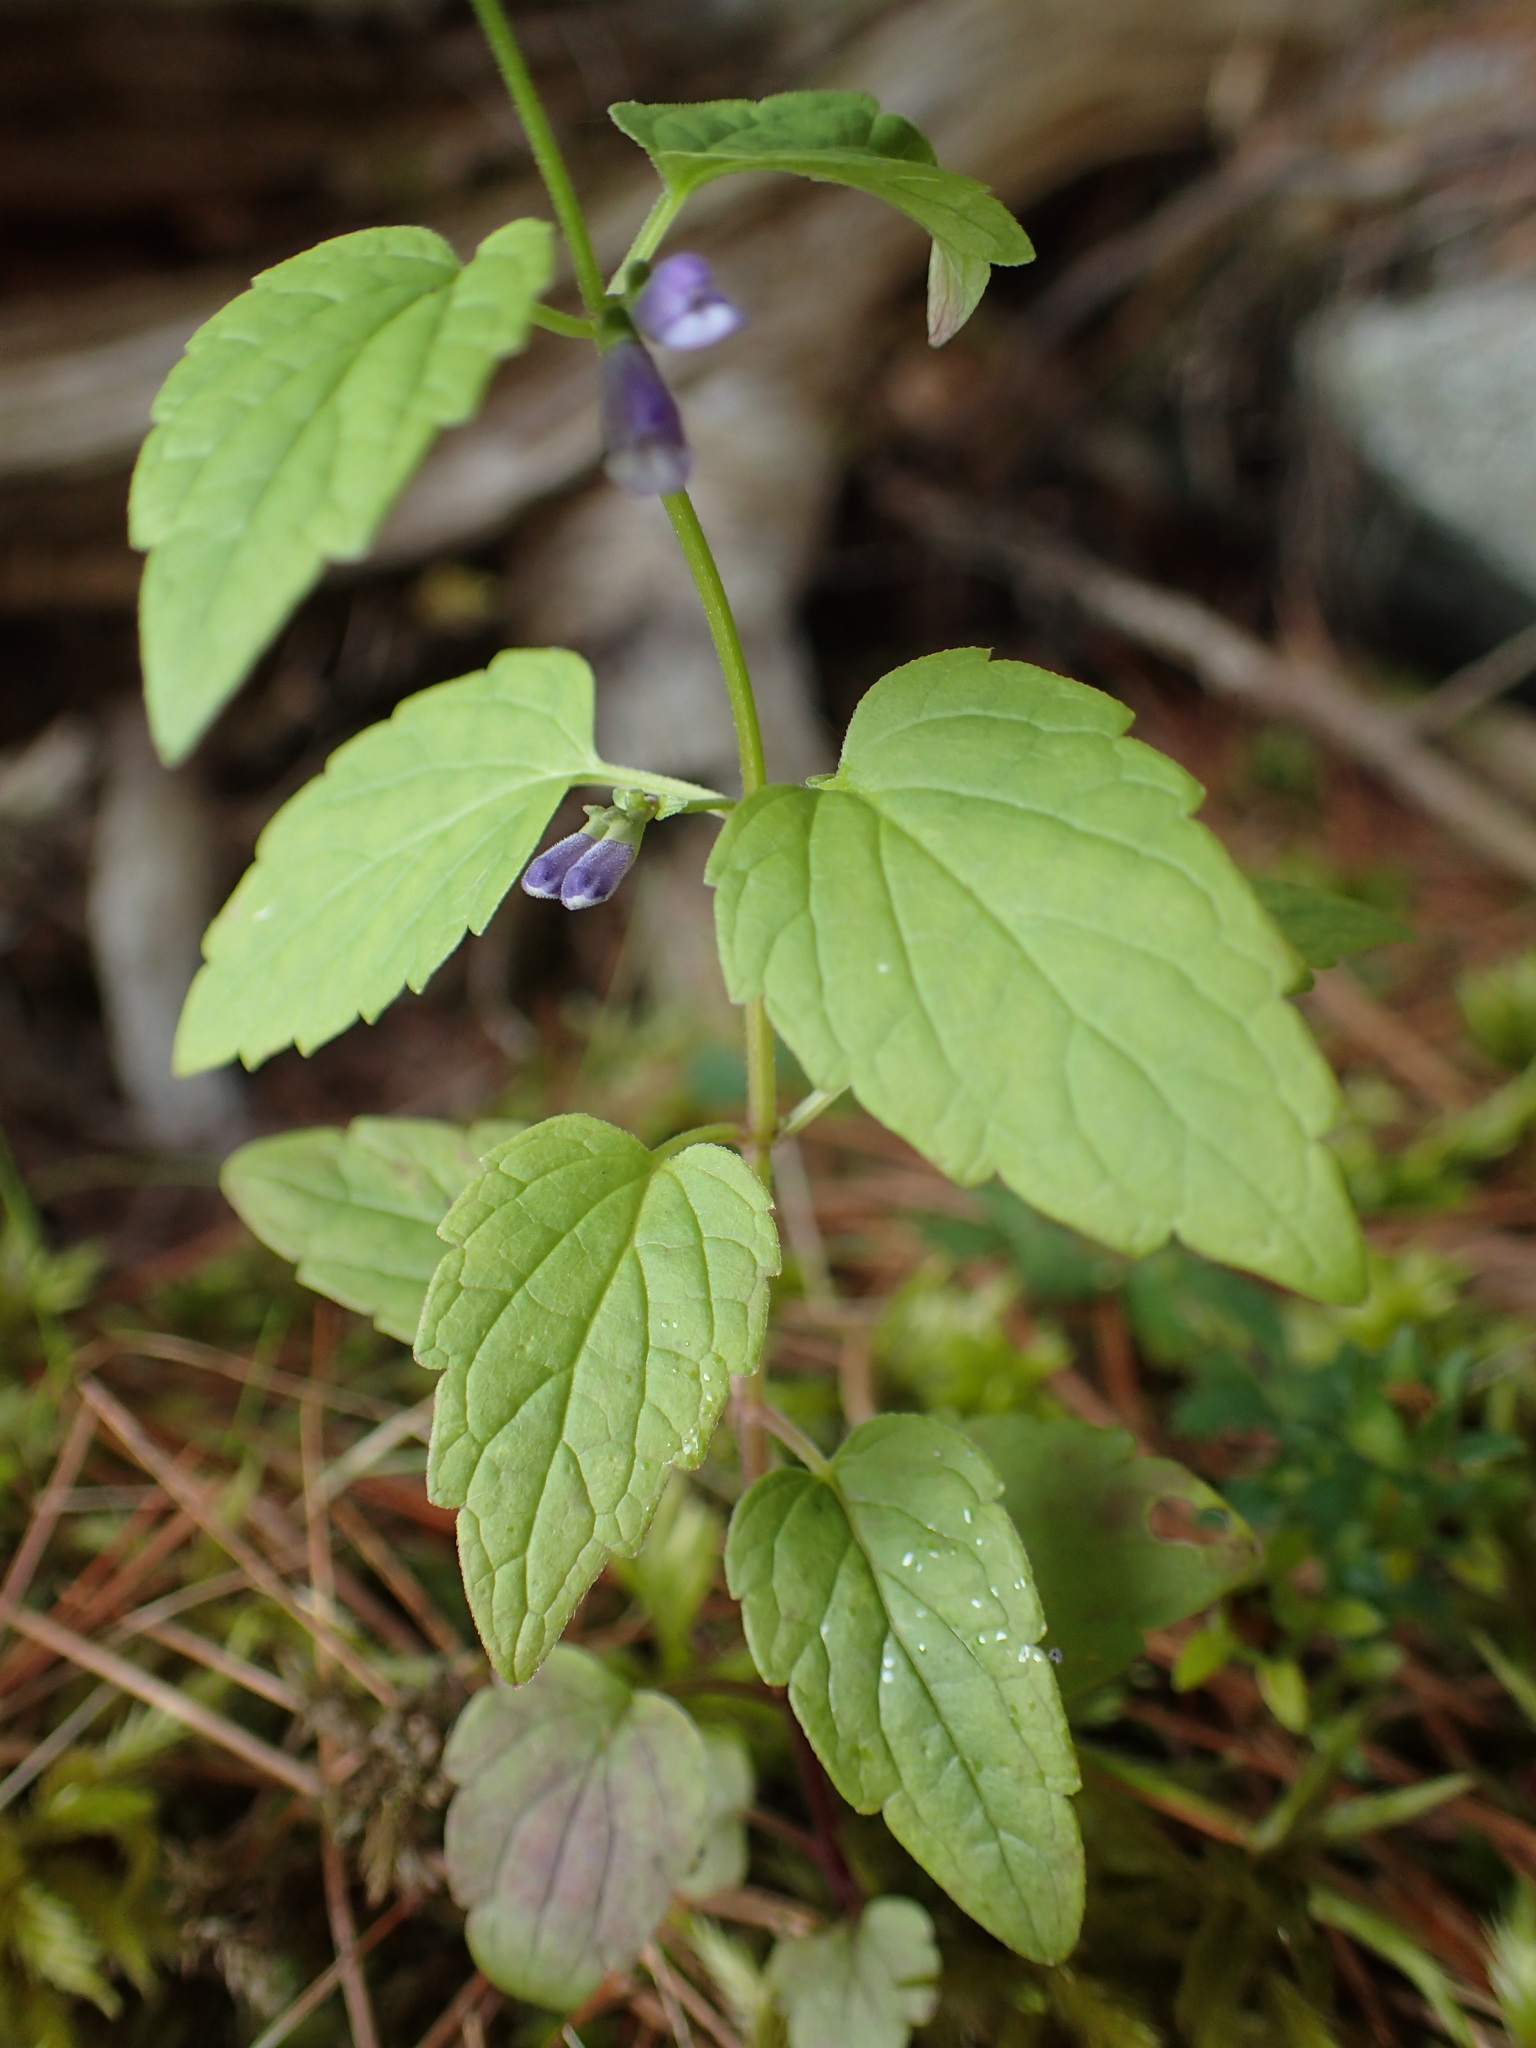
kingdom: Plantae
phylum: Tracheophyta
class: Magnoliopsida
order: Lamiales
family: Lamiaceae
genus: Scutellaria
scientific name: Scutellaria galericulata
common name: Skullcap
